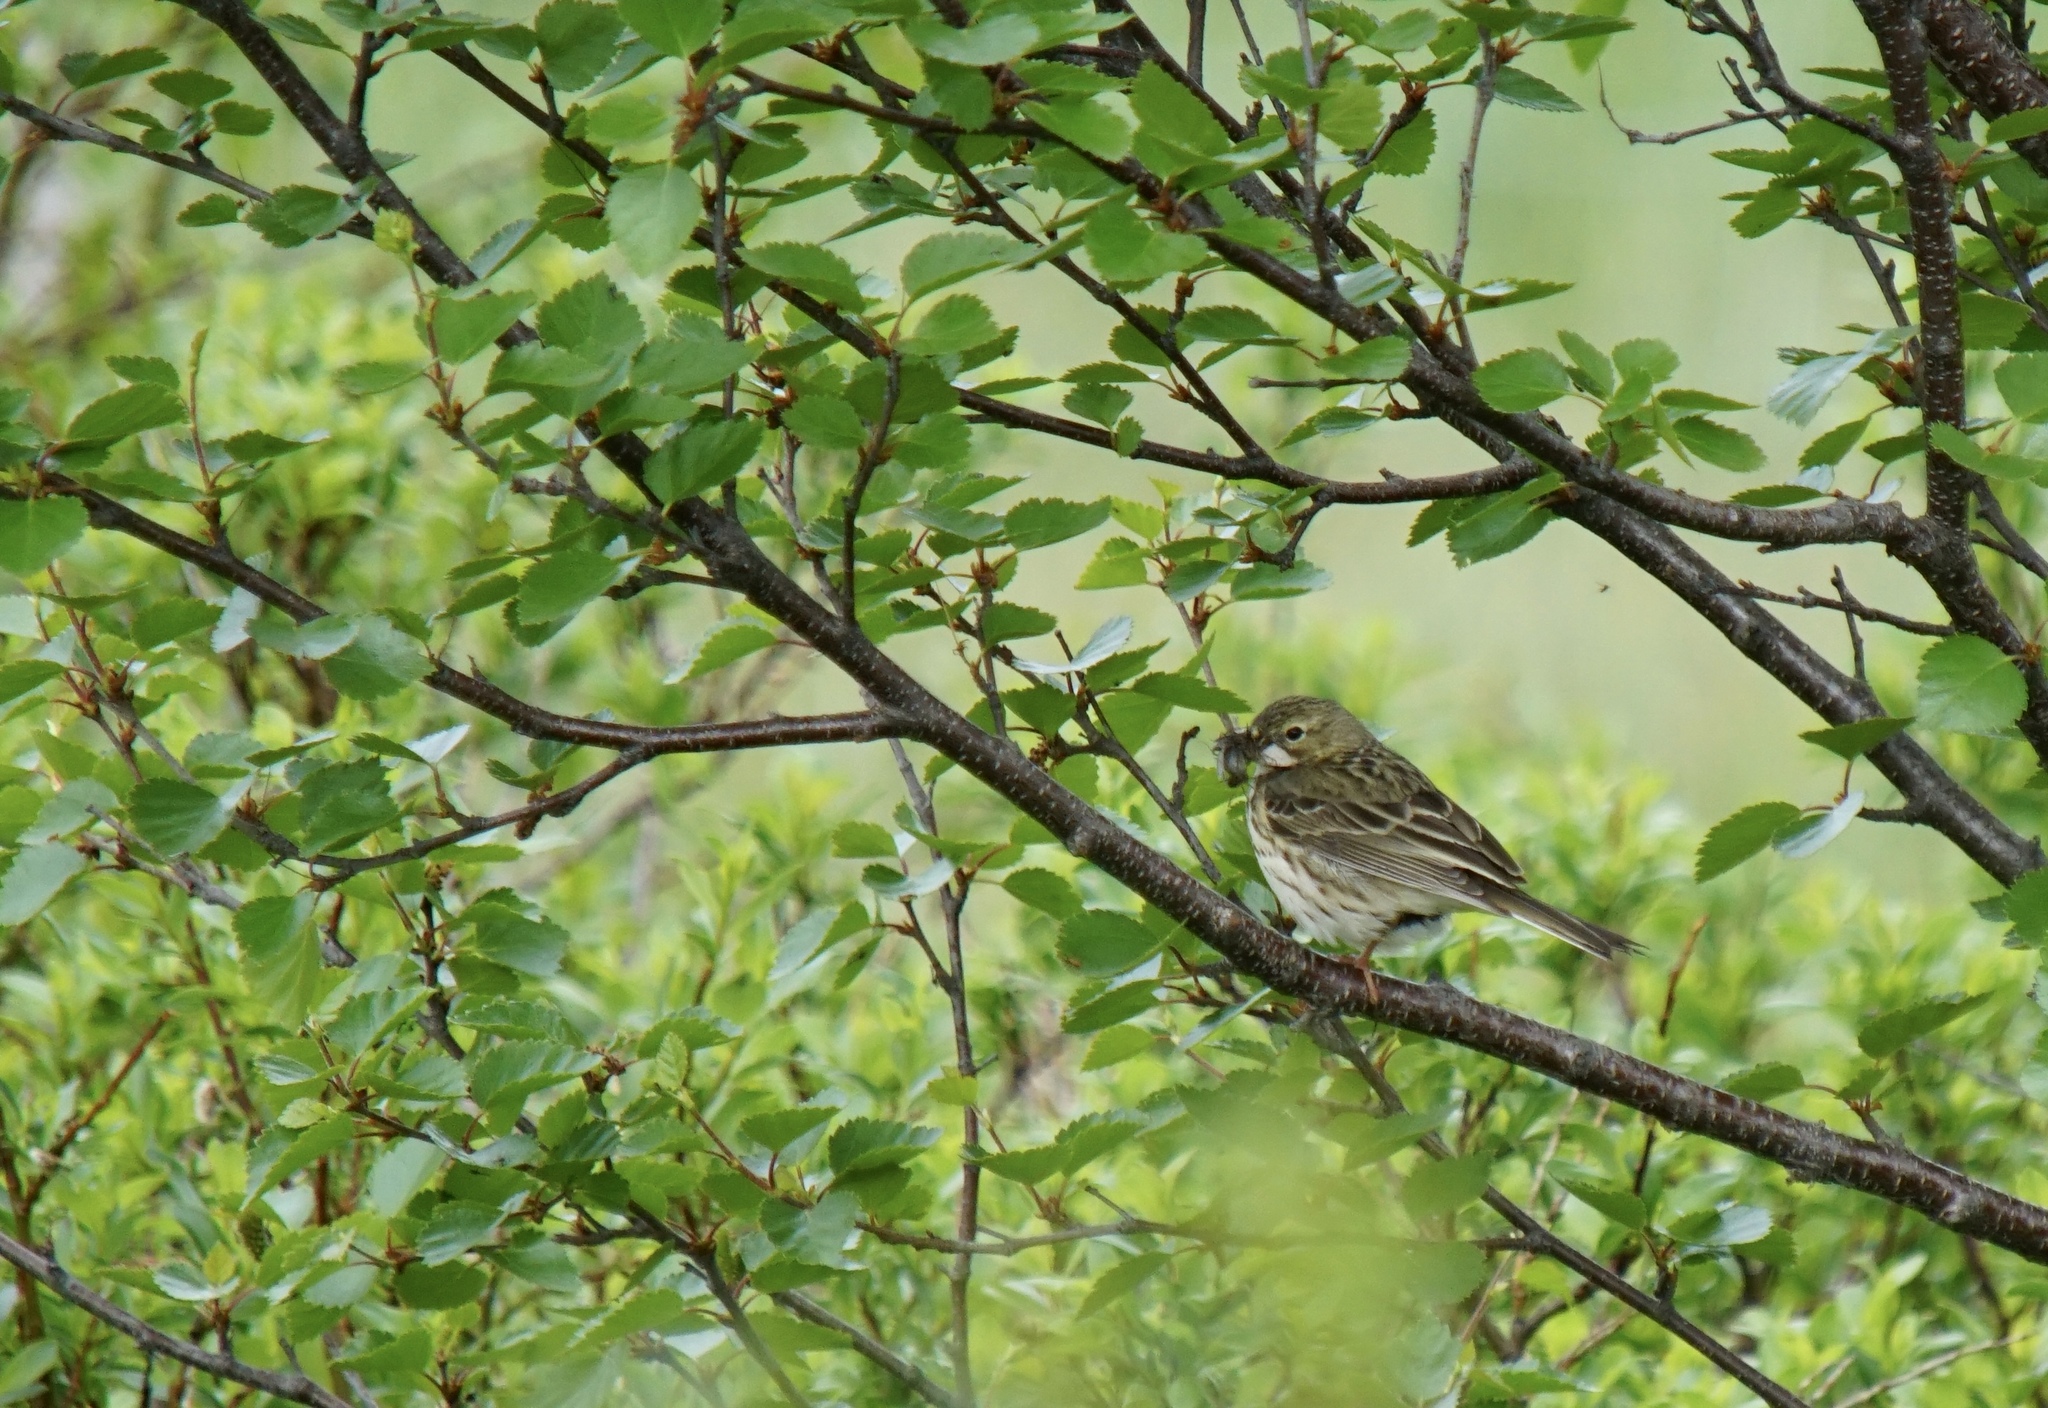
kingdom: Animalia
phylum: Chordata
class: Aves
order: Passeriformes
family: Motacillidae
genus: Anthus
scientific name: Anthus pratensis
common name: Meadow pipit
